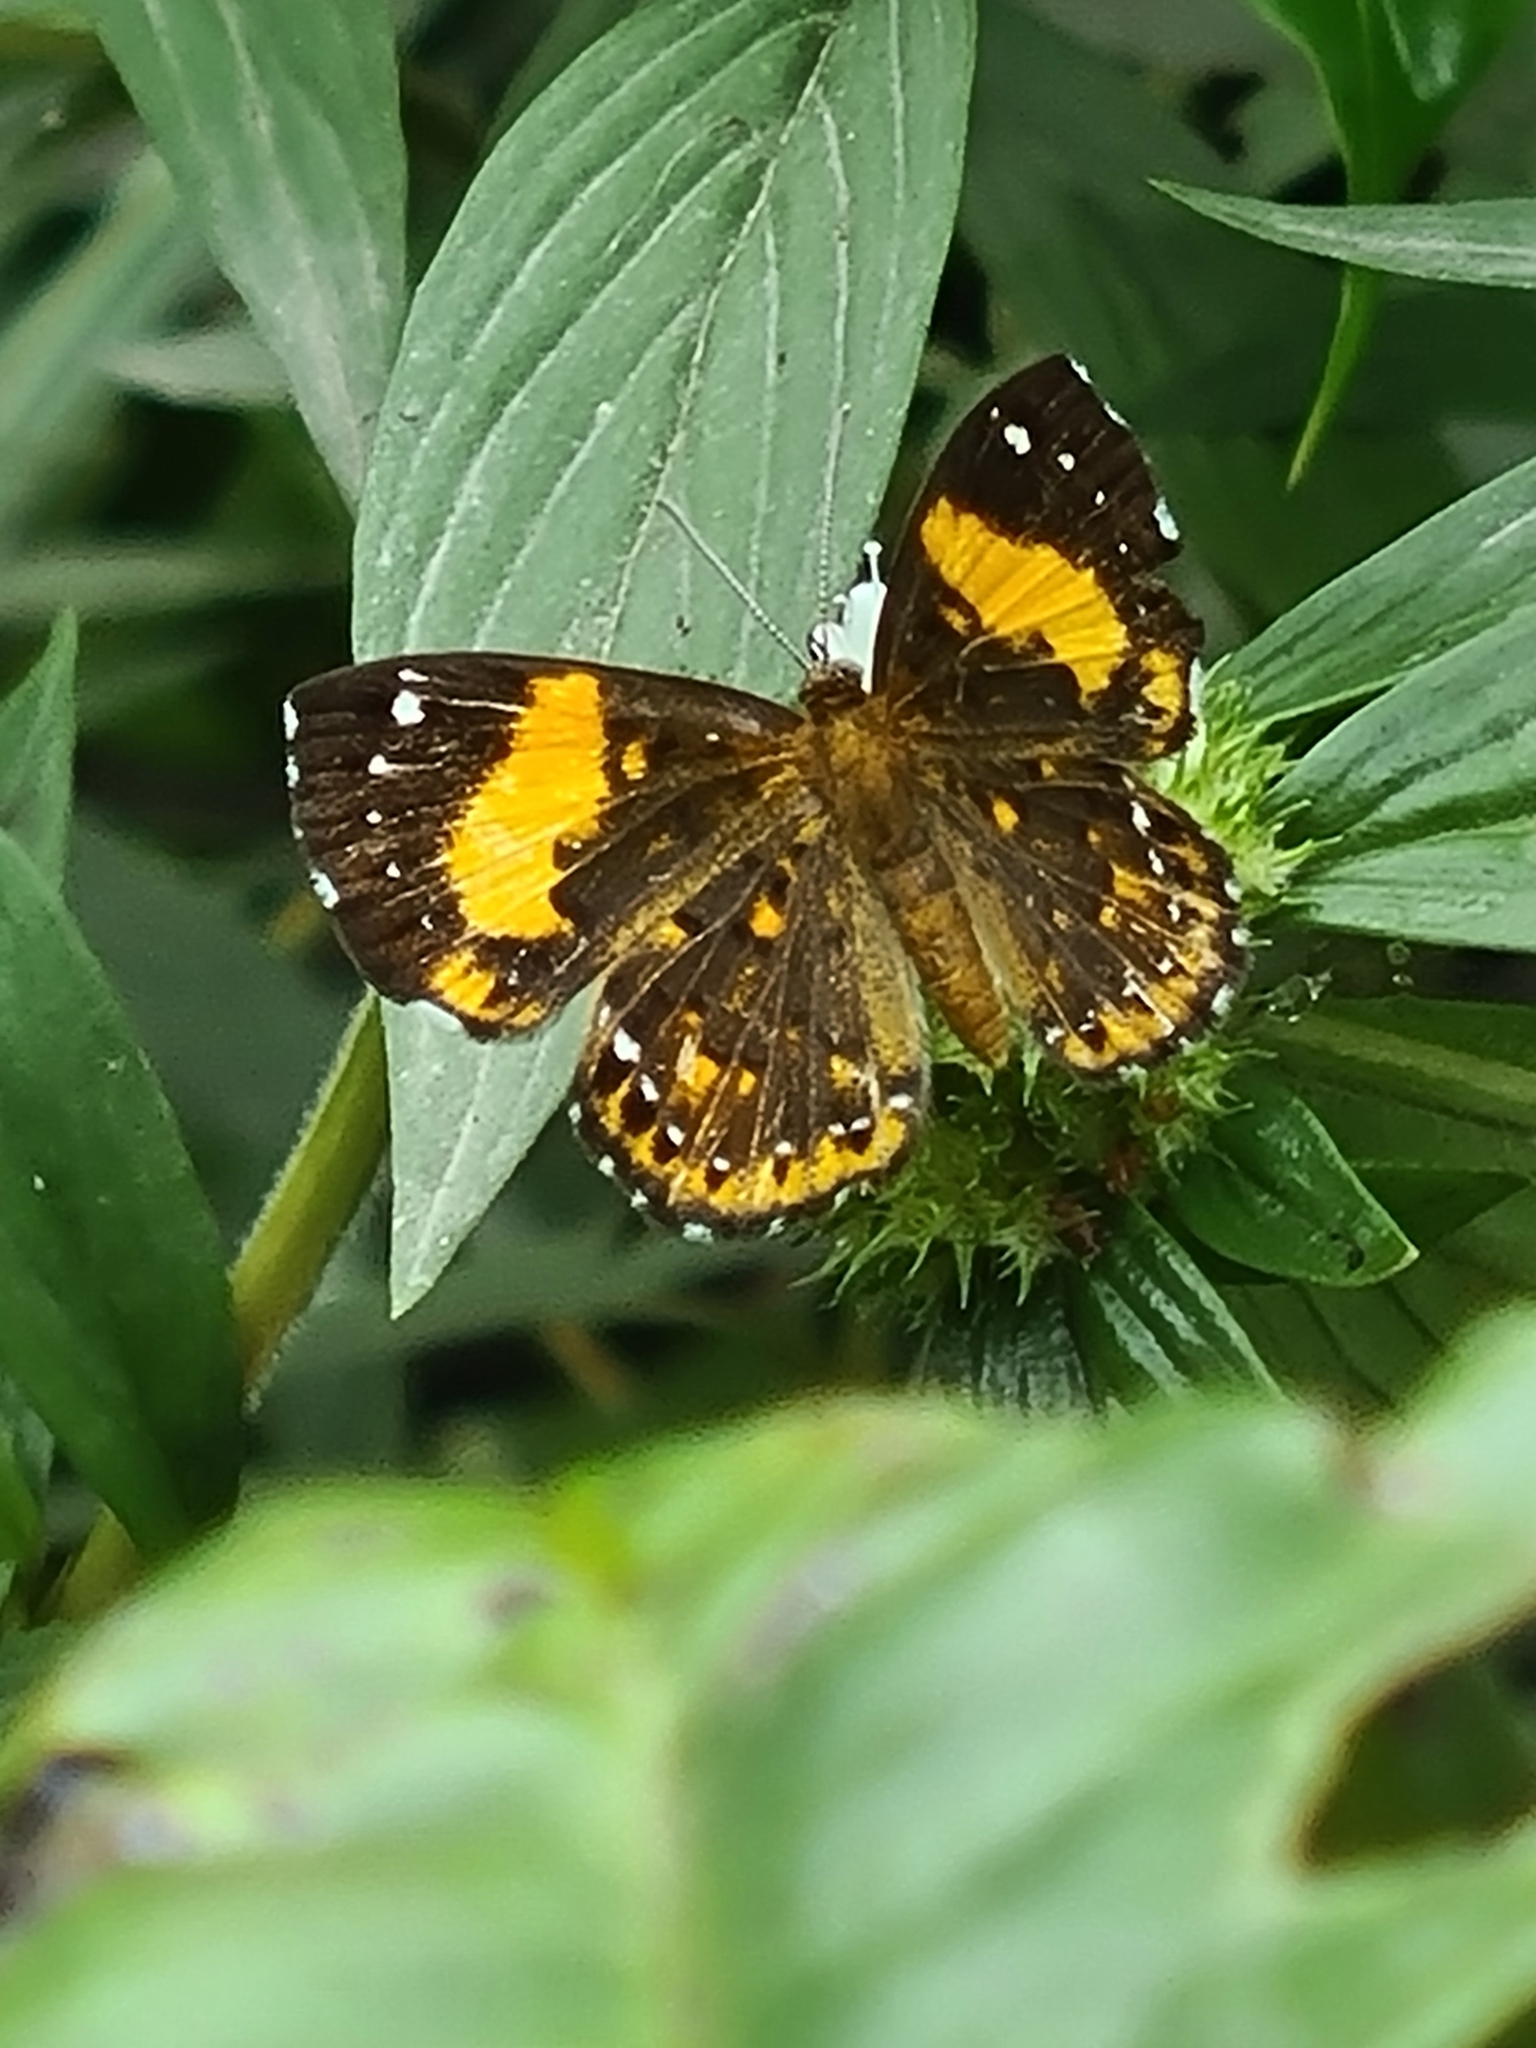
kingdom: Animalia
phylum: Arthropoda
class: Insecta
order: Lepidoptera
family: Riodinidae
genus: Polystichtis
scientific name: Polystichtis emylius
